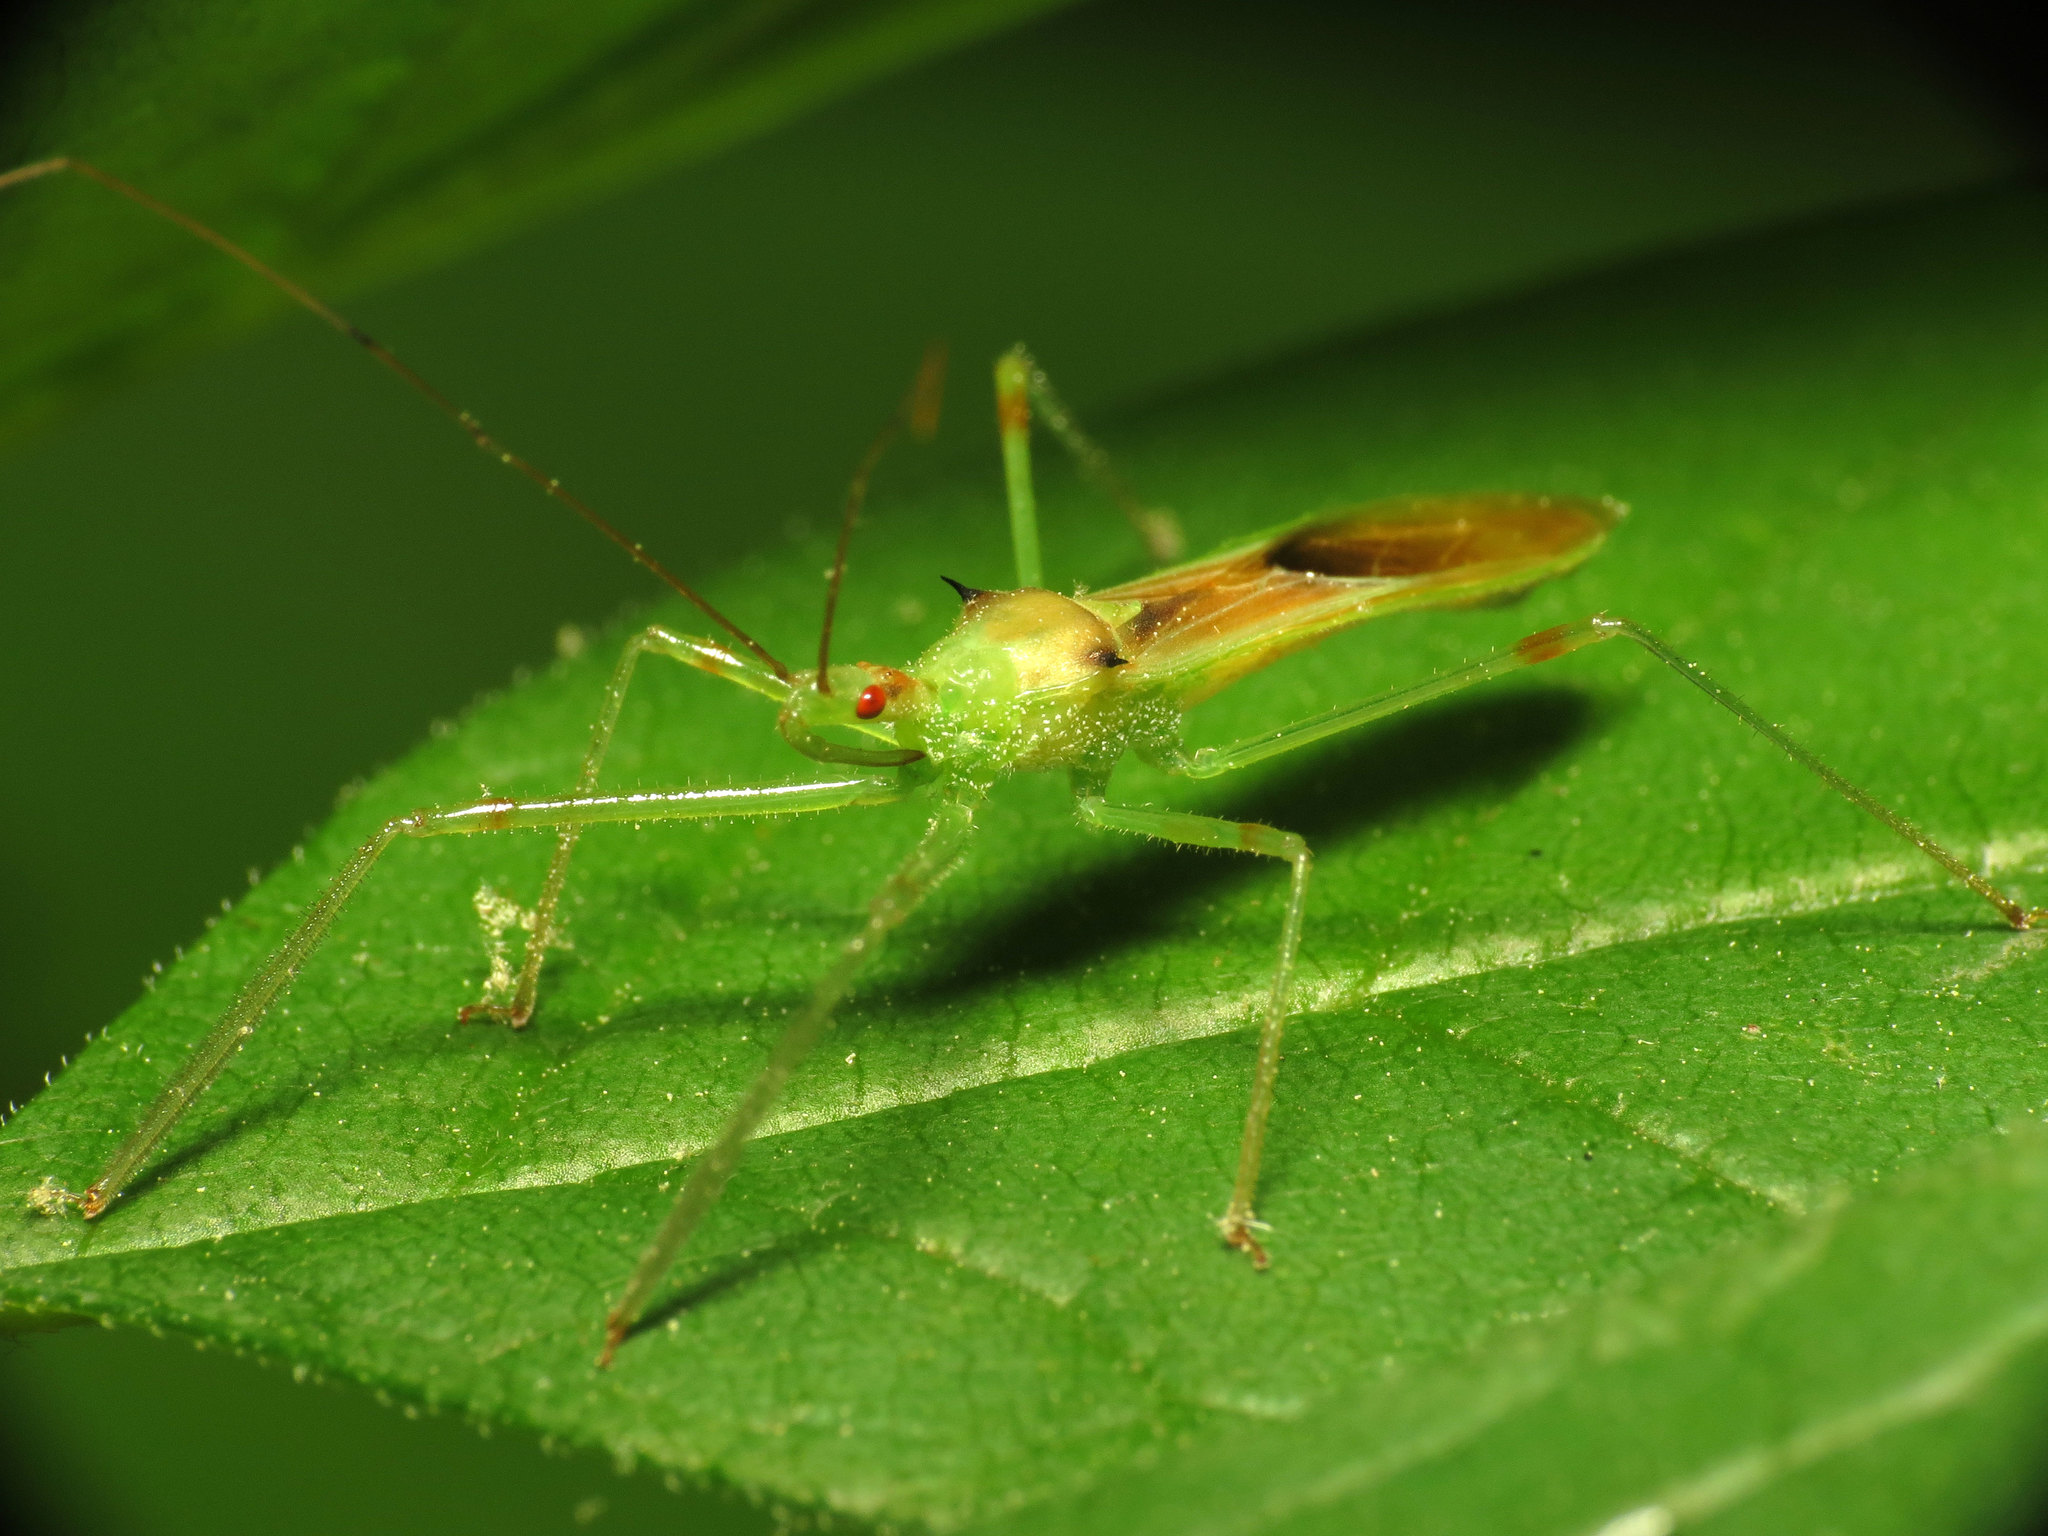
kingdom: Animalia
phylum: Arthropoda
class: Insecta
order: Hemiptera
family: Reduviidae
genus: Zelus
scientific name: Zelus luridus
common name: Pale green assassin bug
